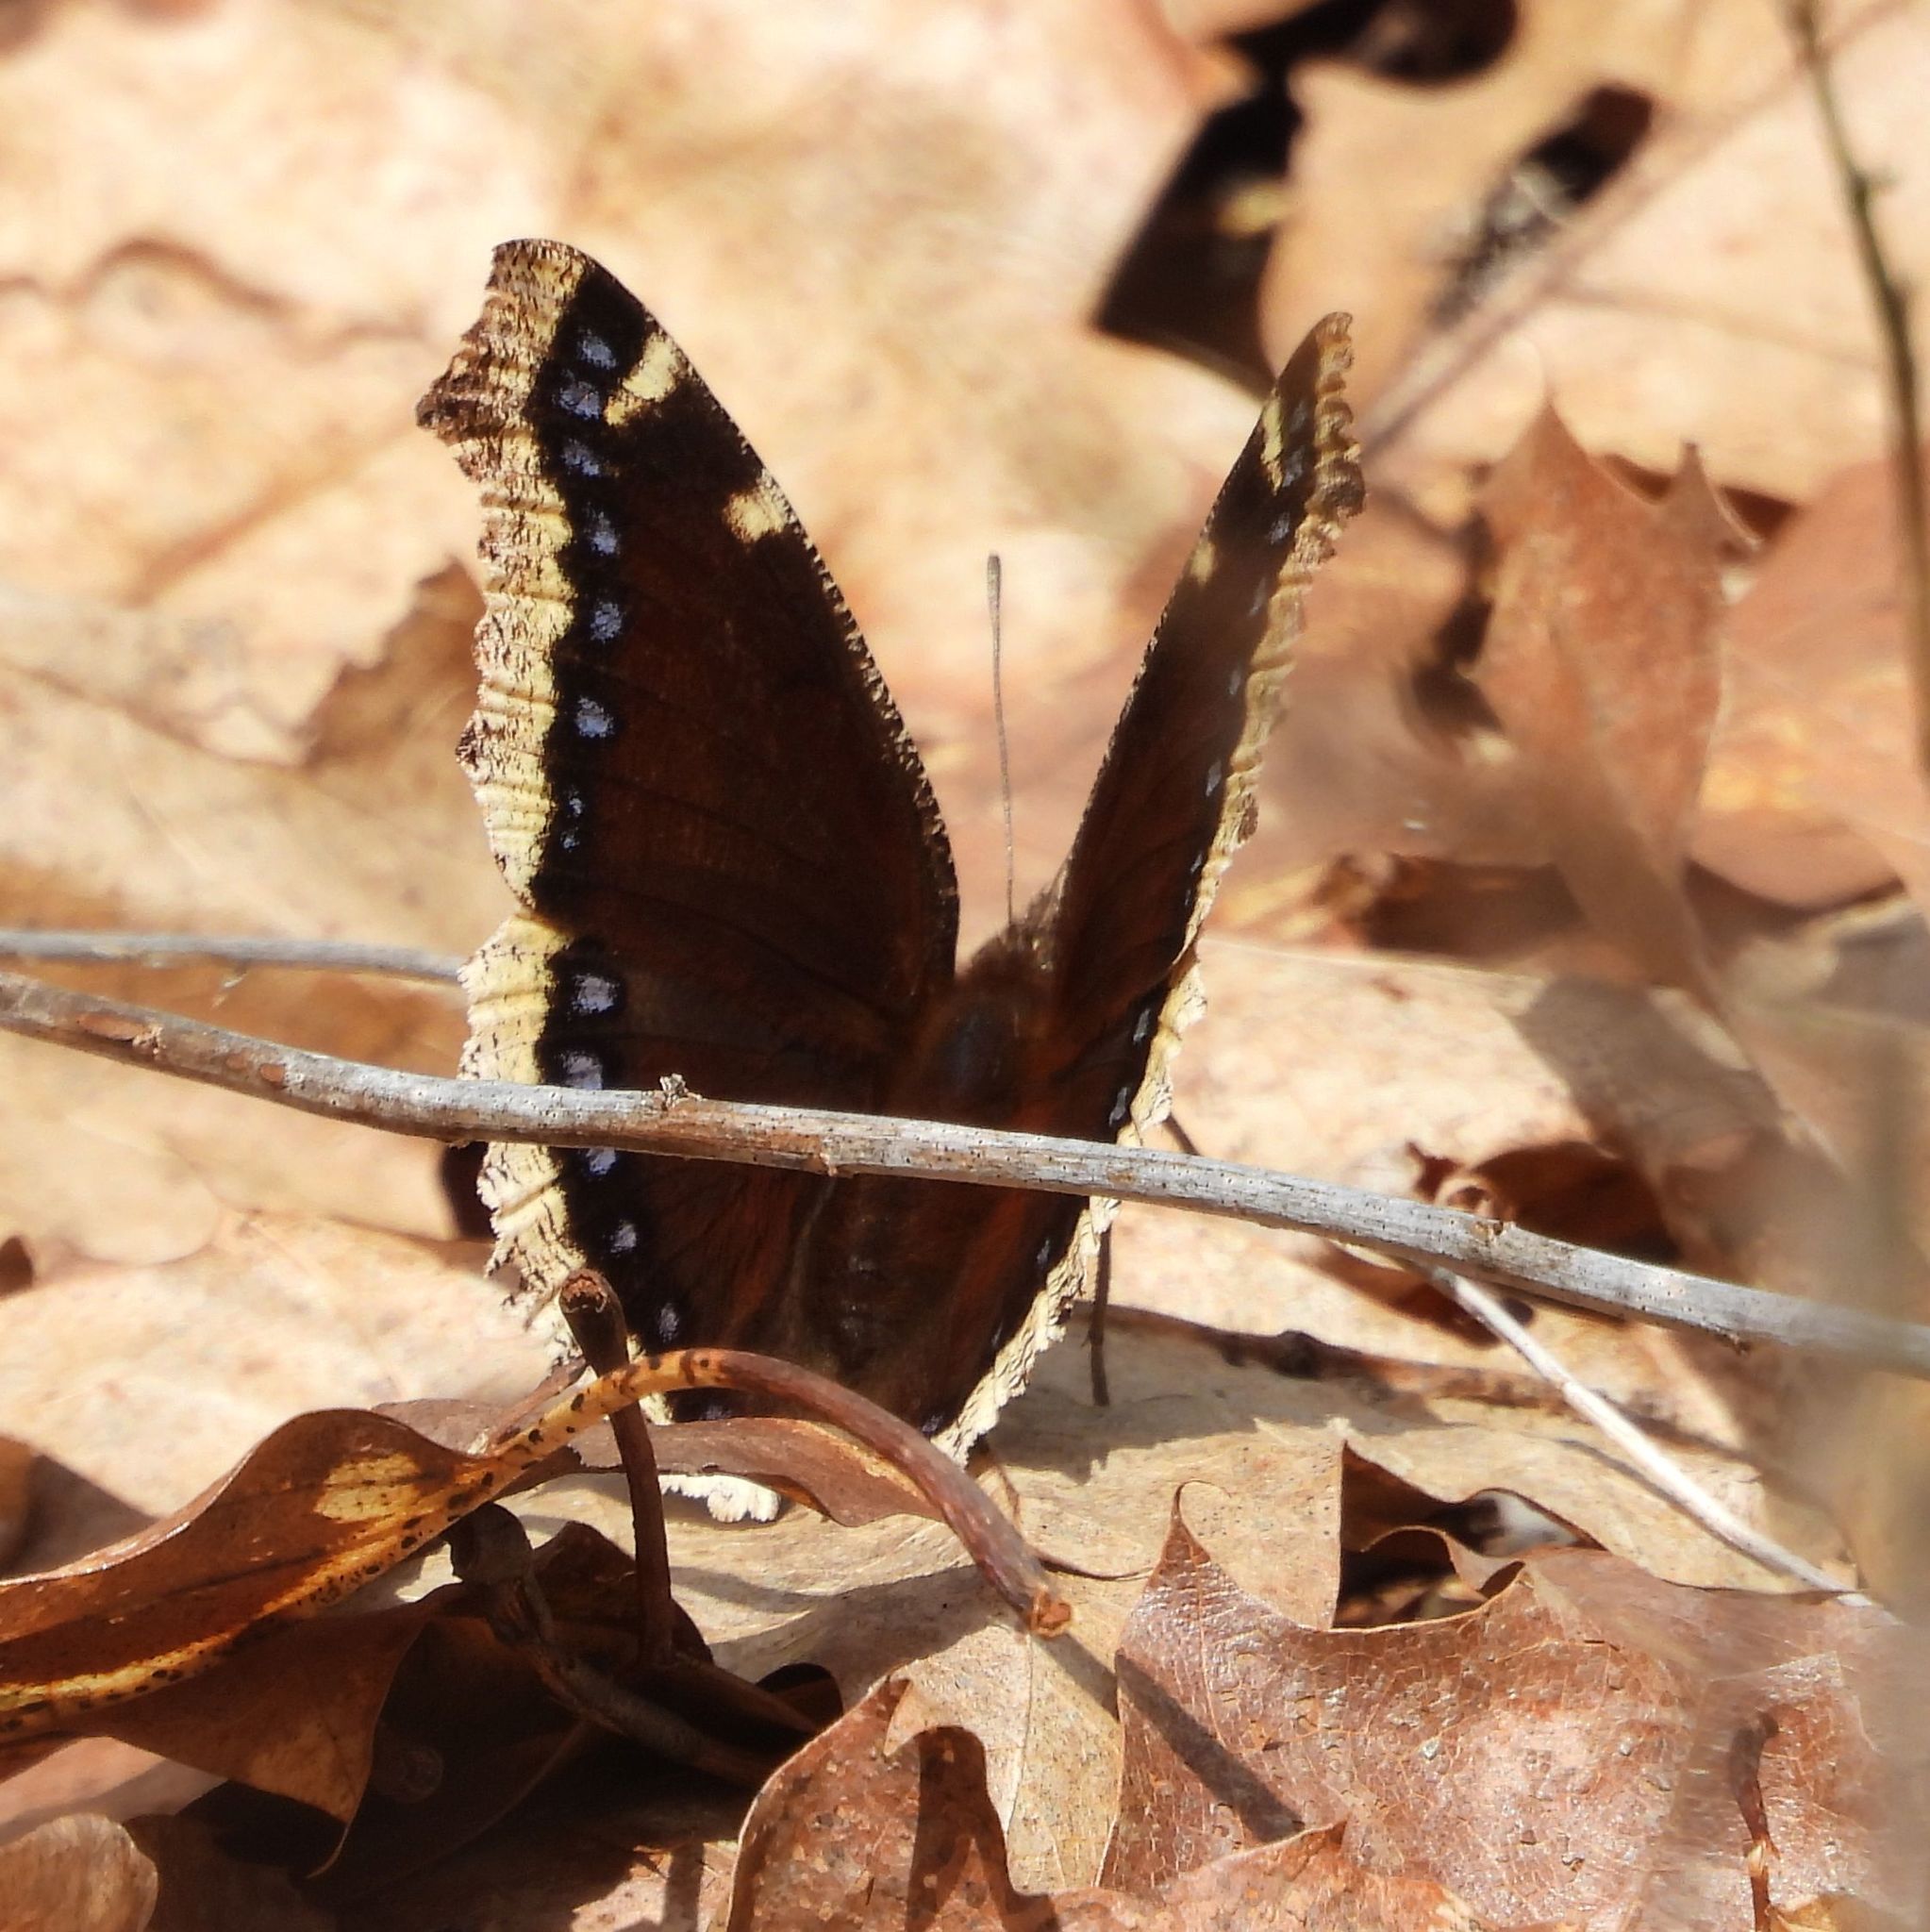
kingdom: Animalia
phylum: Arthropoda
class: Insecta
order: Lepidoptera
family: Nymphalidae
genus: Nymphalis
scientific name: Nymphalis antiopa
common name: Camberwell beauty
